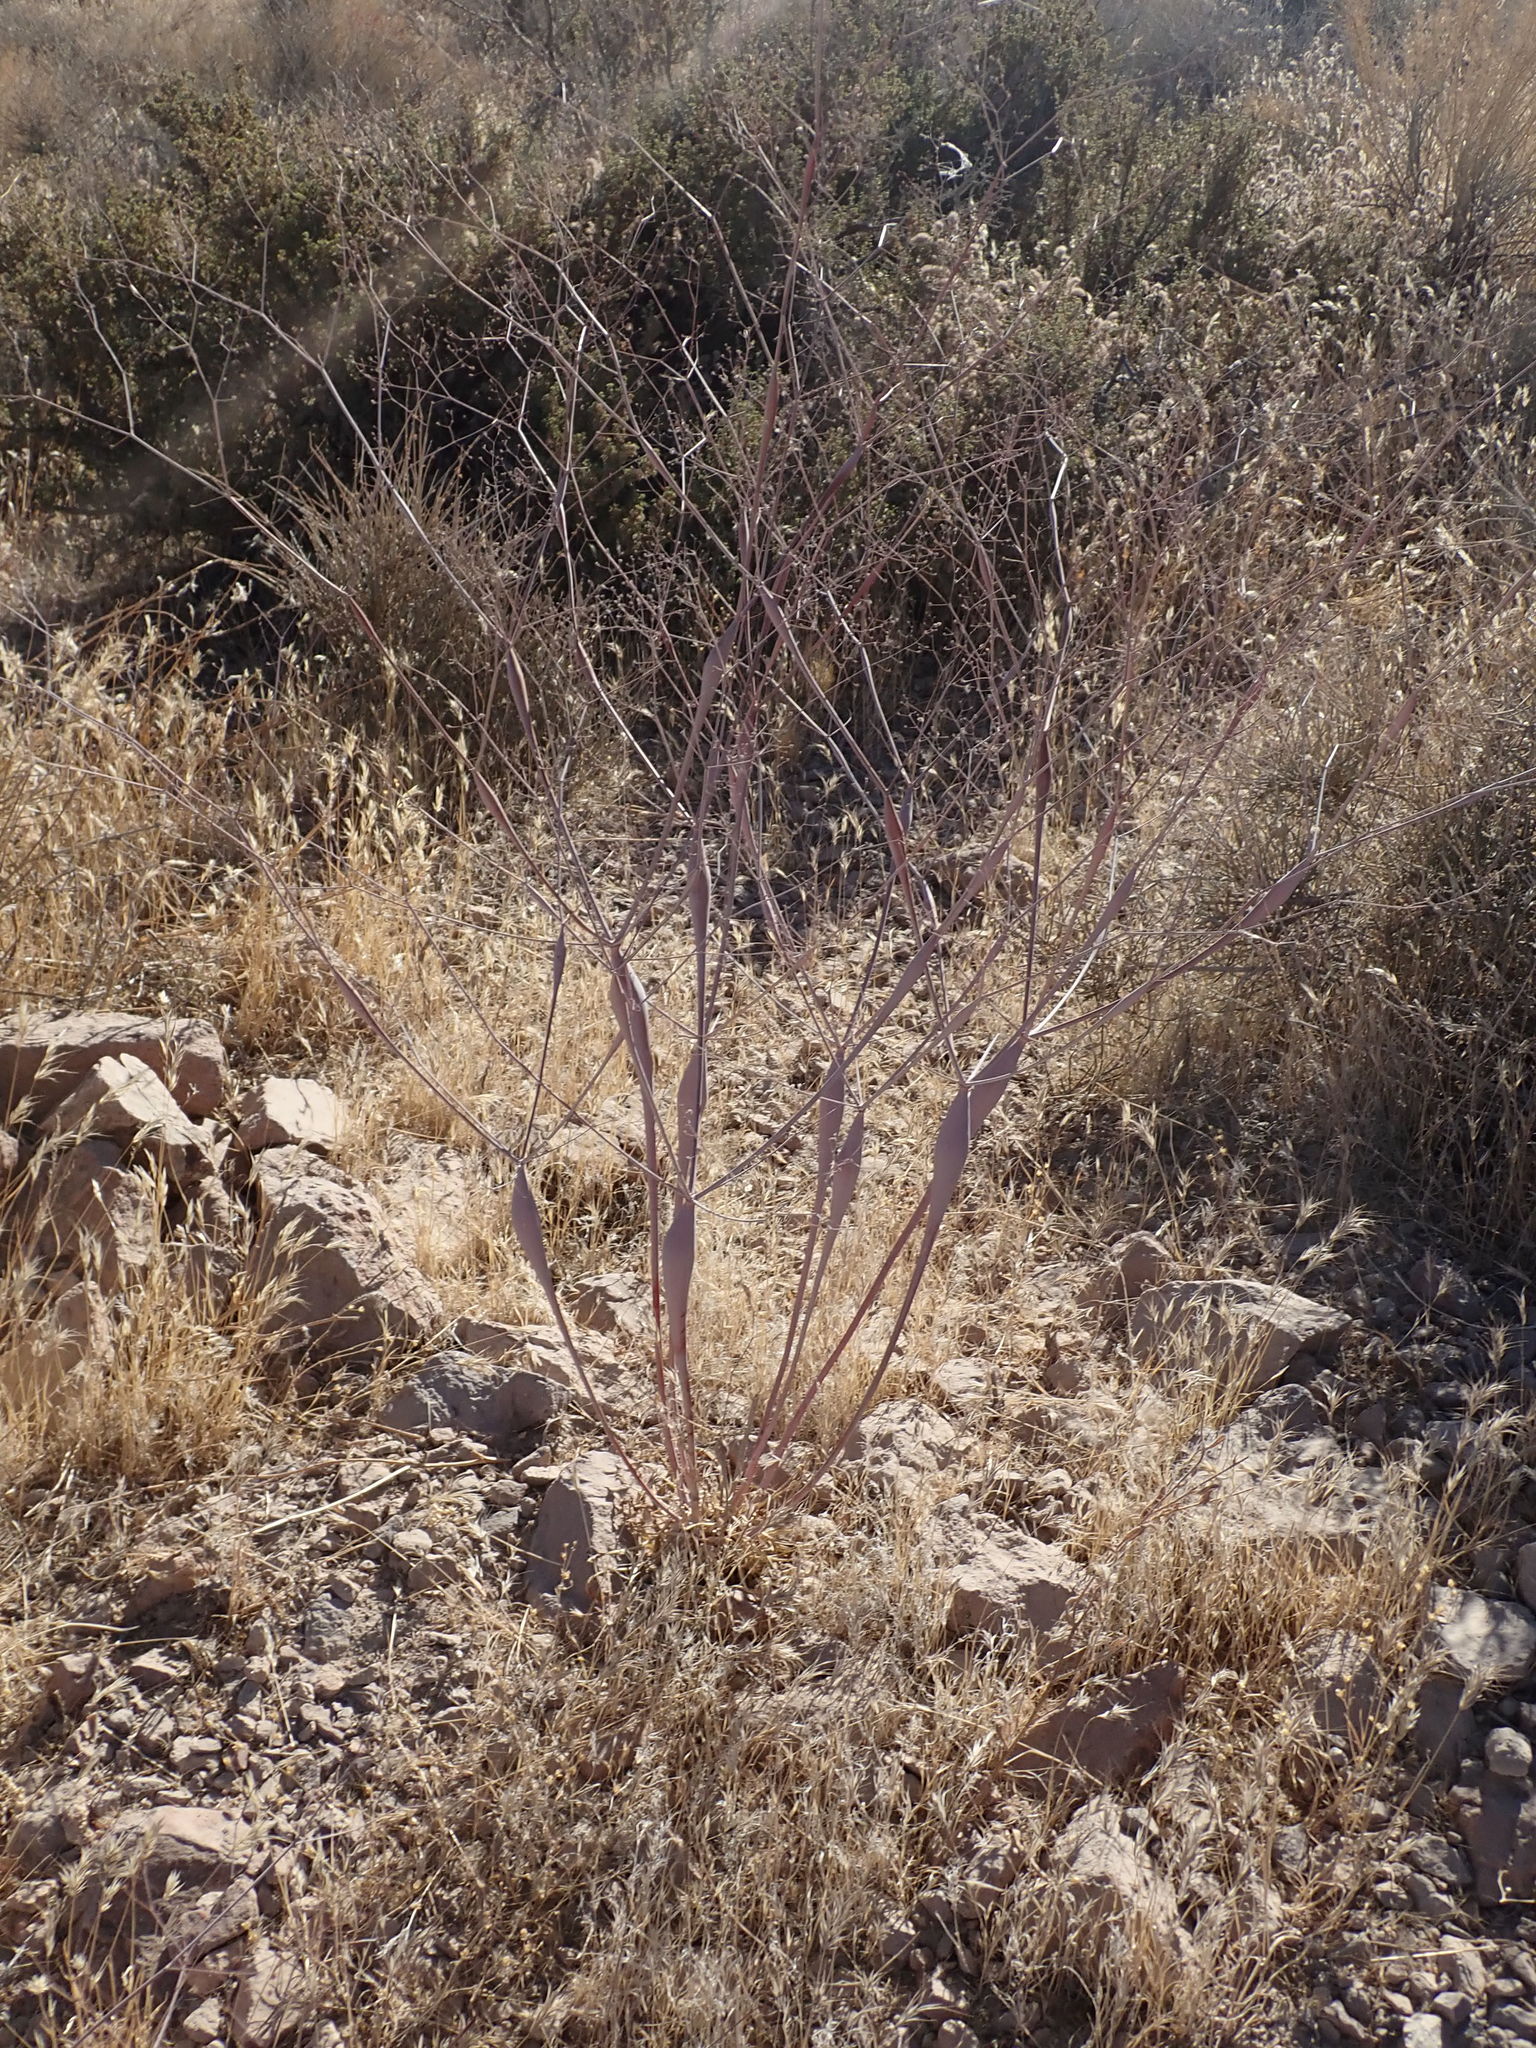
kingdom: Plantae
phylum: Tracheophyta
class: Magnoliopsida
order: Caryophyllales
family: Polygonaceae
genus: Eriogonum
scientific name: Eriogonum inflatum
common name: Desert trumpet
